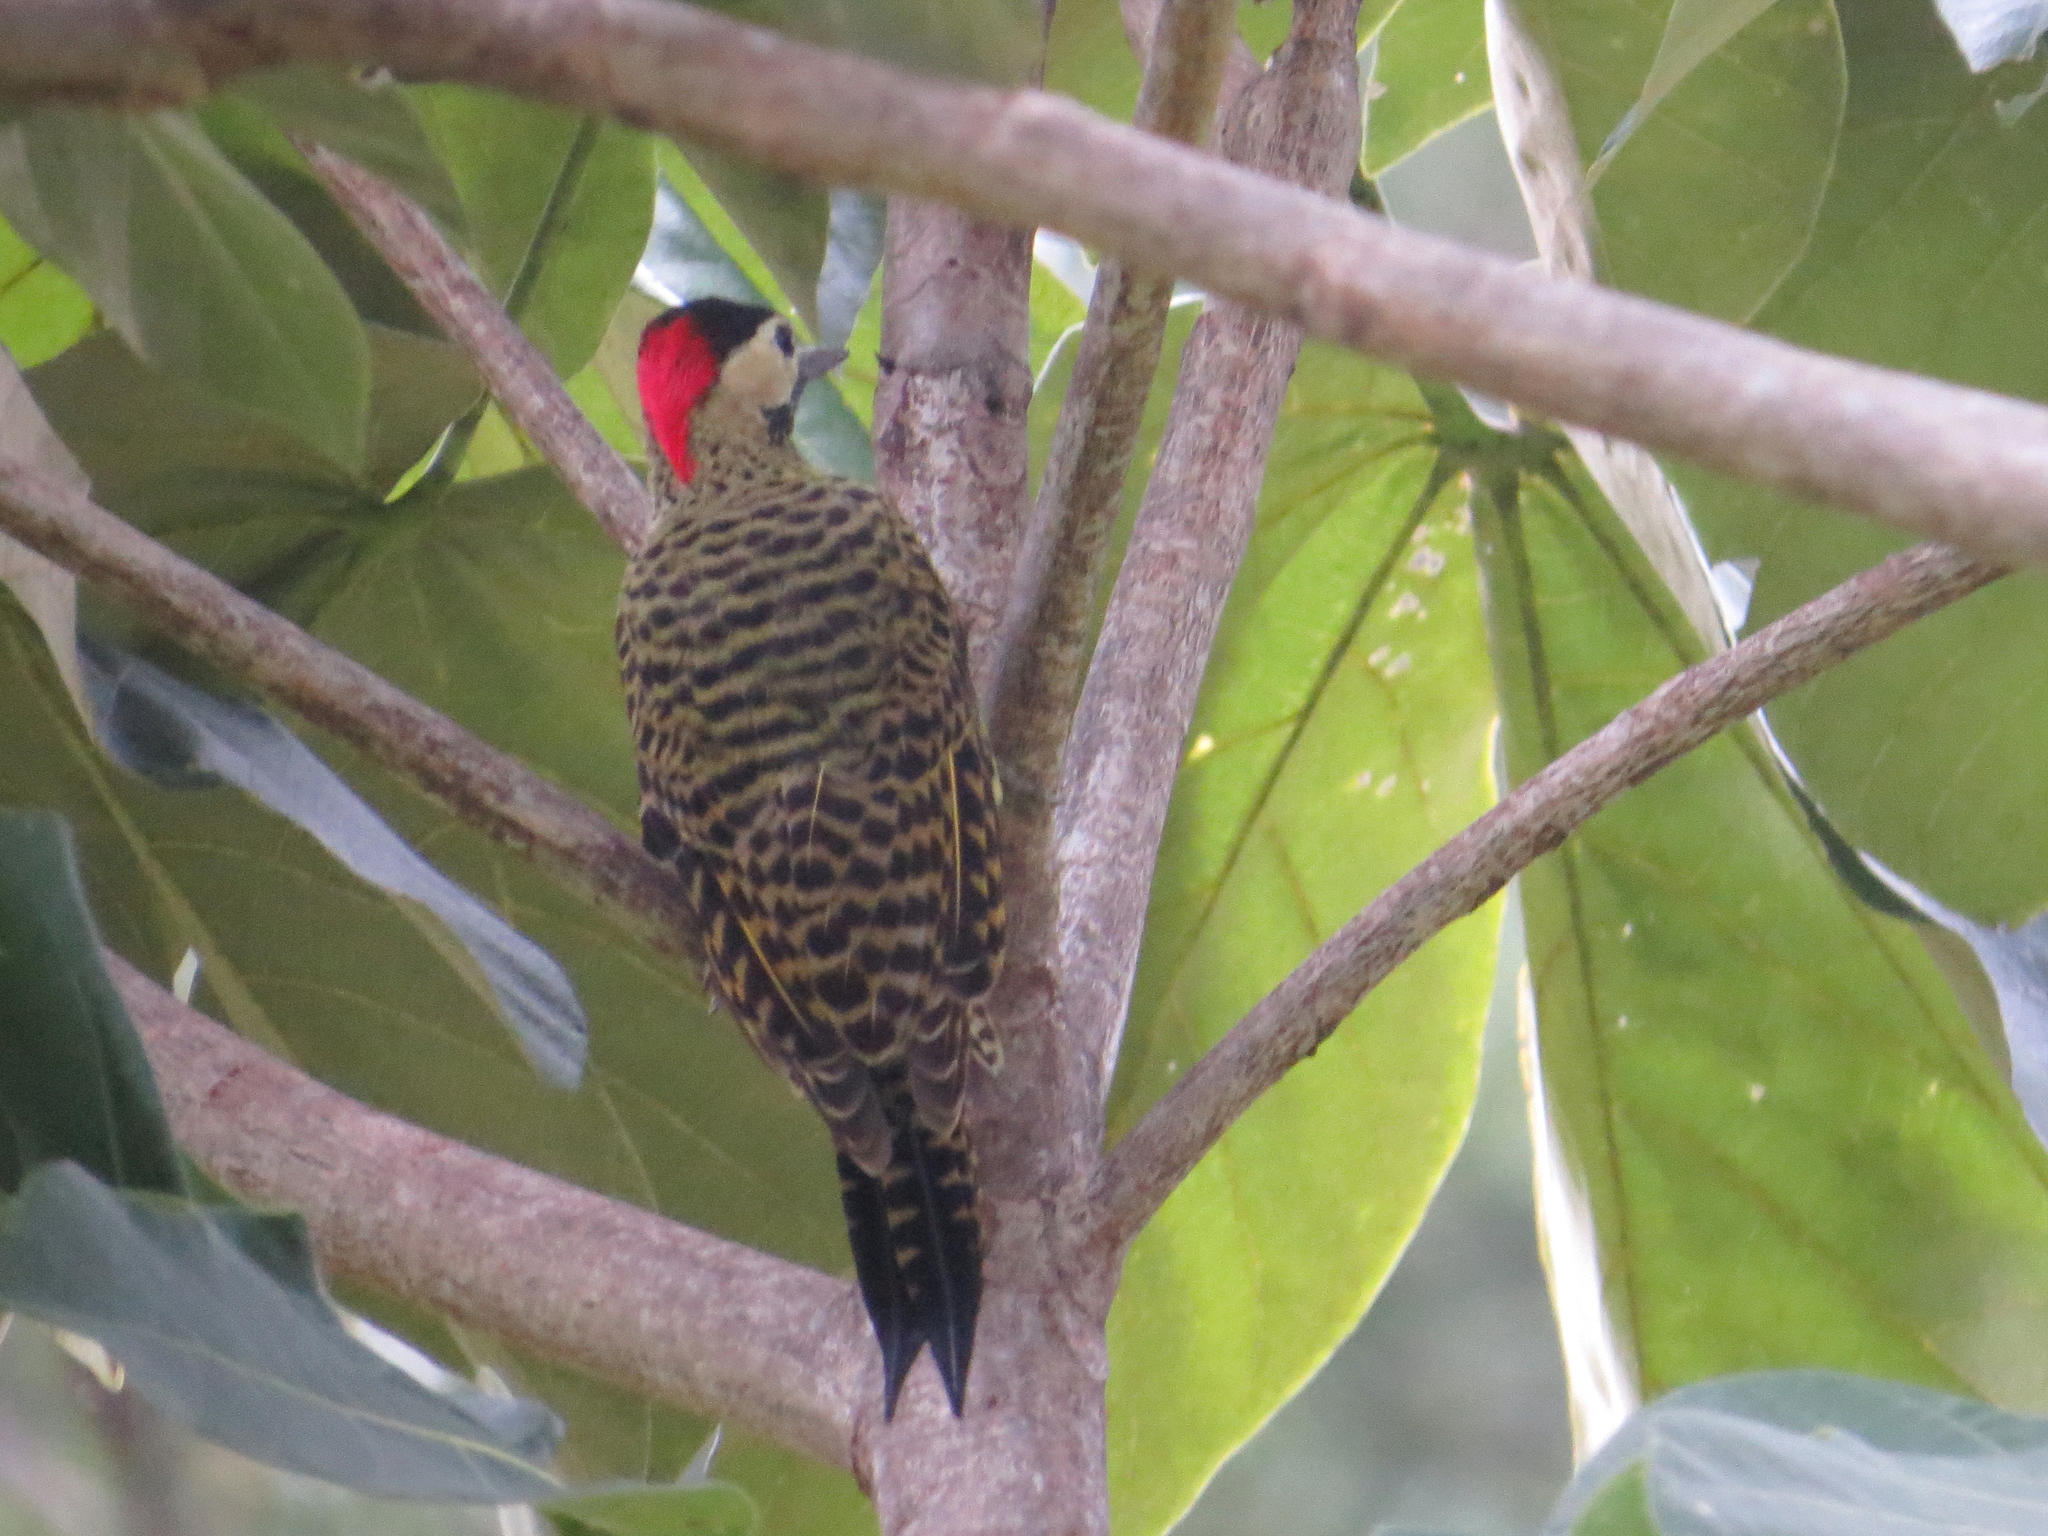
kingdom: Animalia
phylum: Chordata
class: Aves
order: Piciformes
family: Picidae
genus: Colaptes
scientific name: Colaptes melanochloros
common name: Green-barred woodpecker
